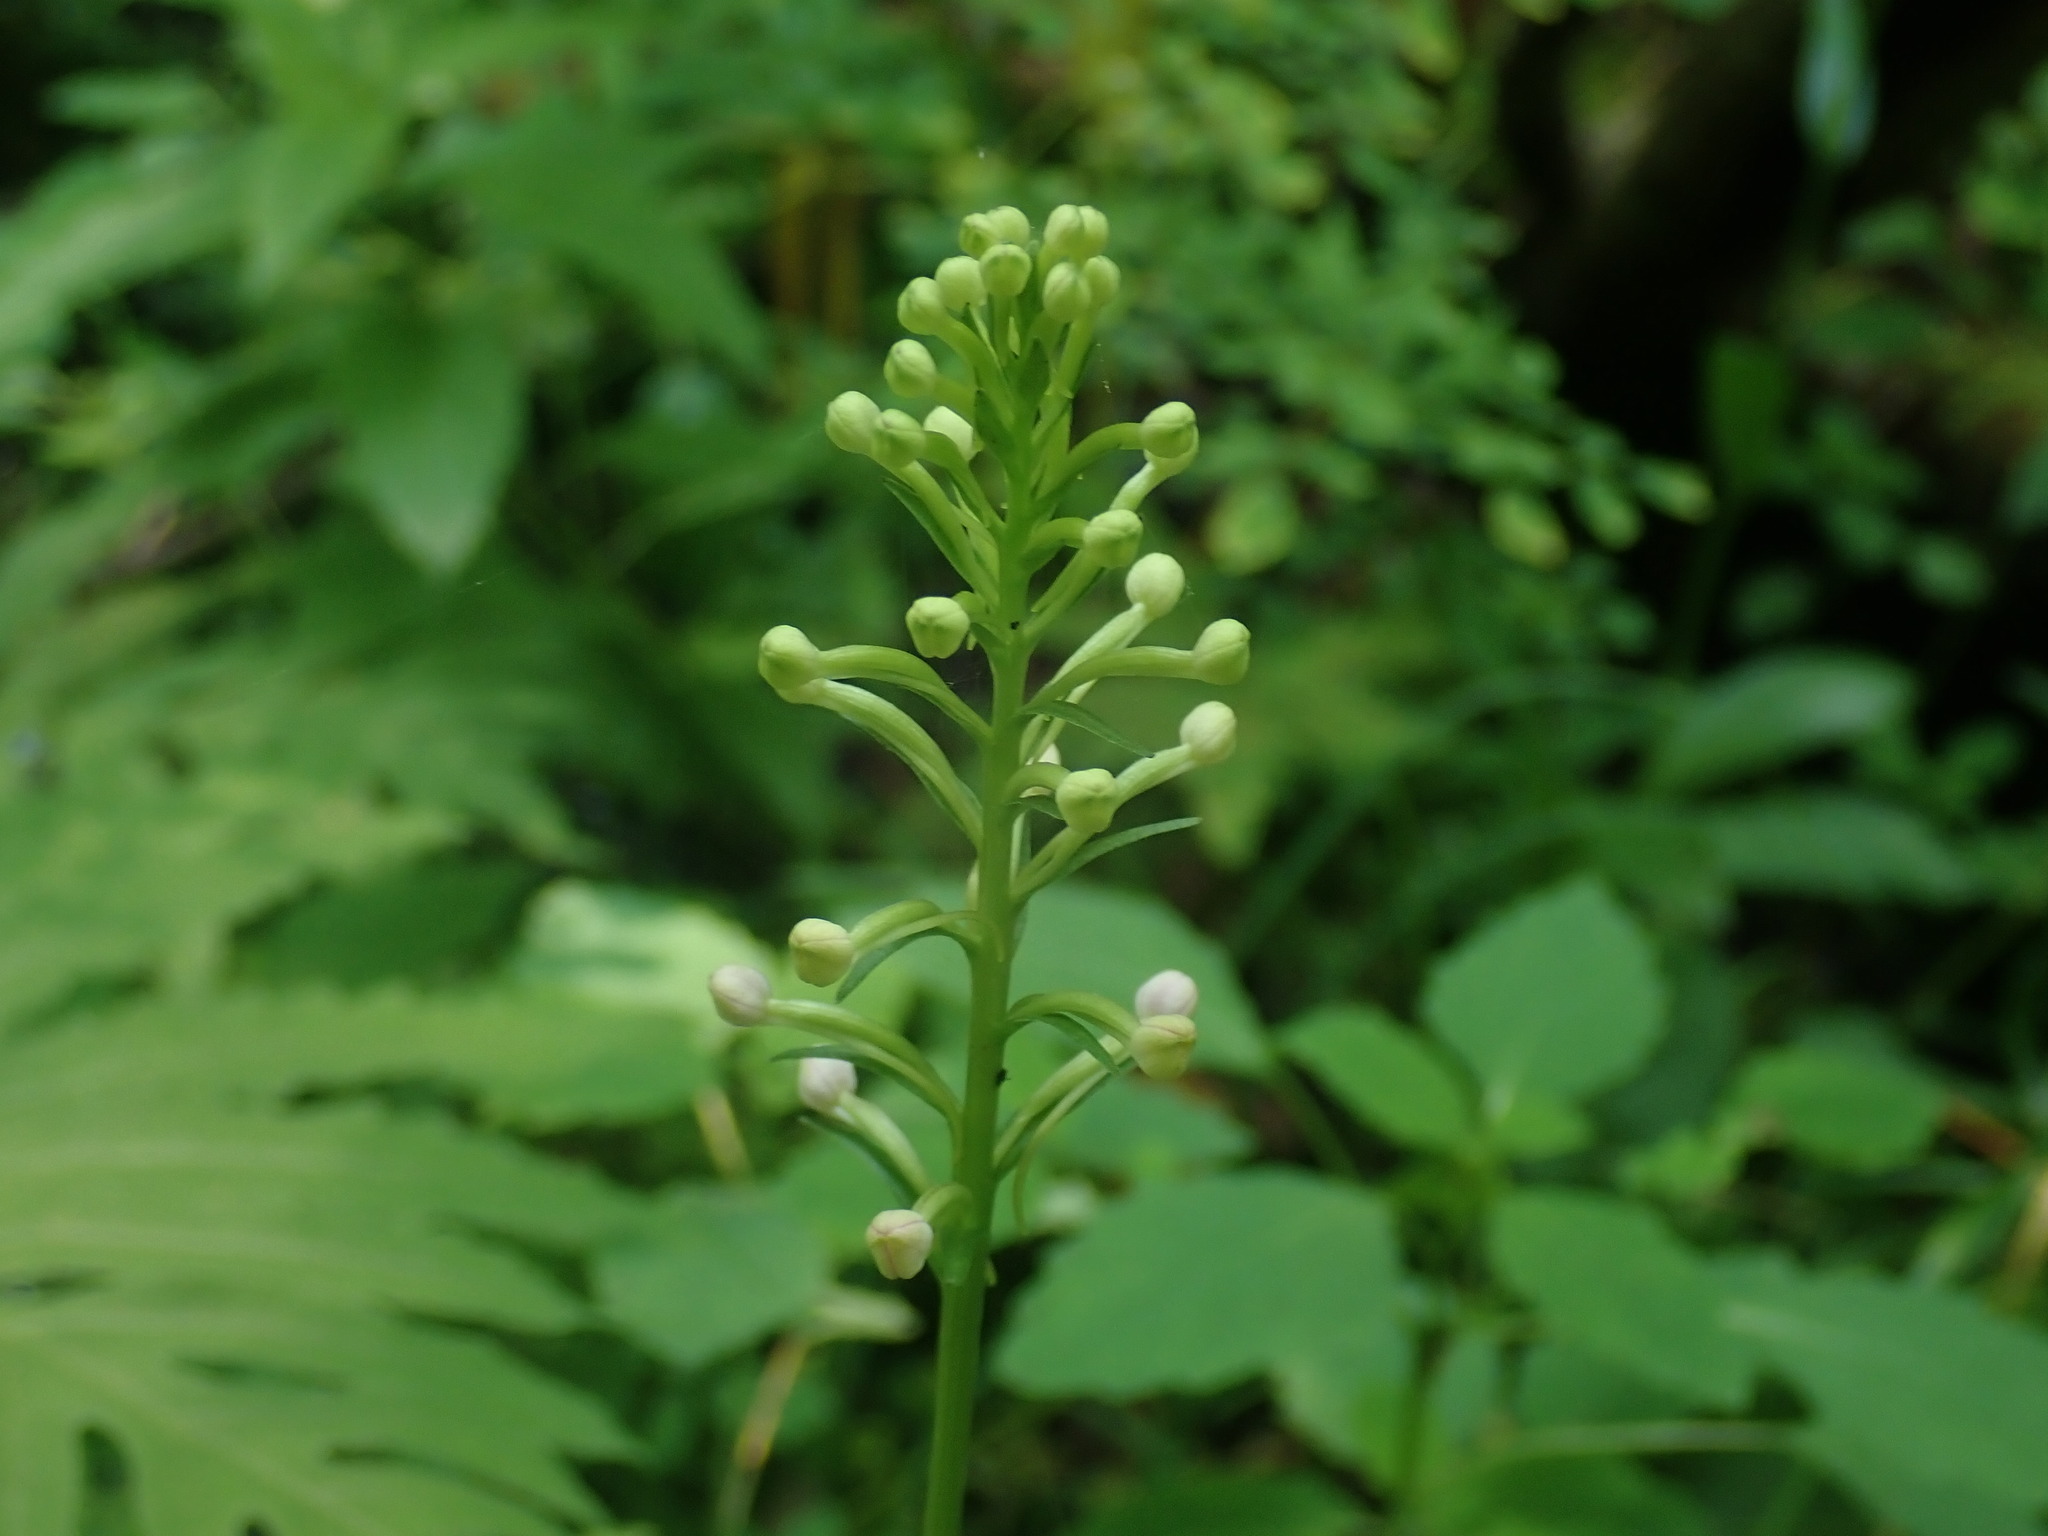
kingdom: Plantae
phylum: Tracheophyta
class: Liliopsida
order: Asparagales
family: Orchidaceae
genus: Platanthera
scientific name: Platanthera psycodes
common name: Lesser purple fringed orchid
